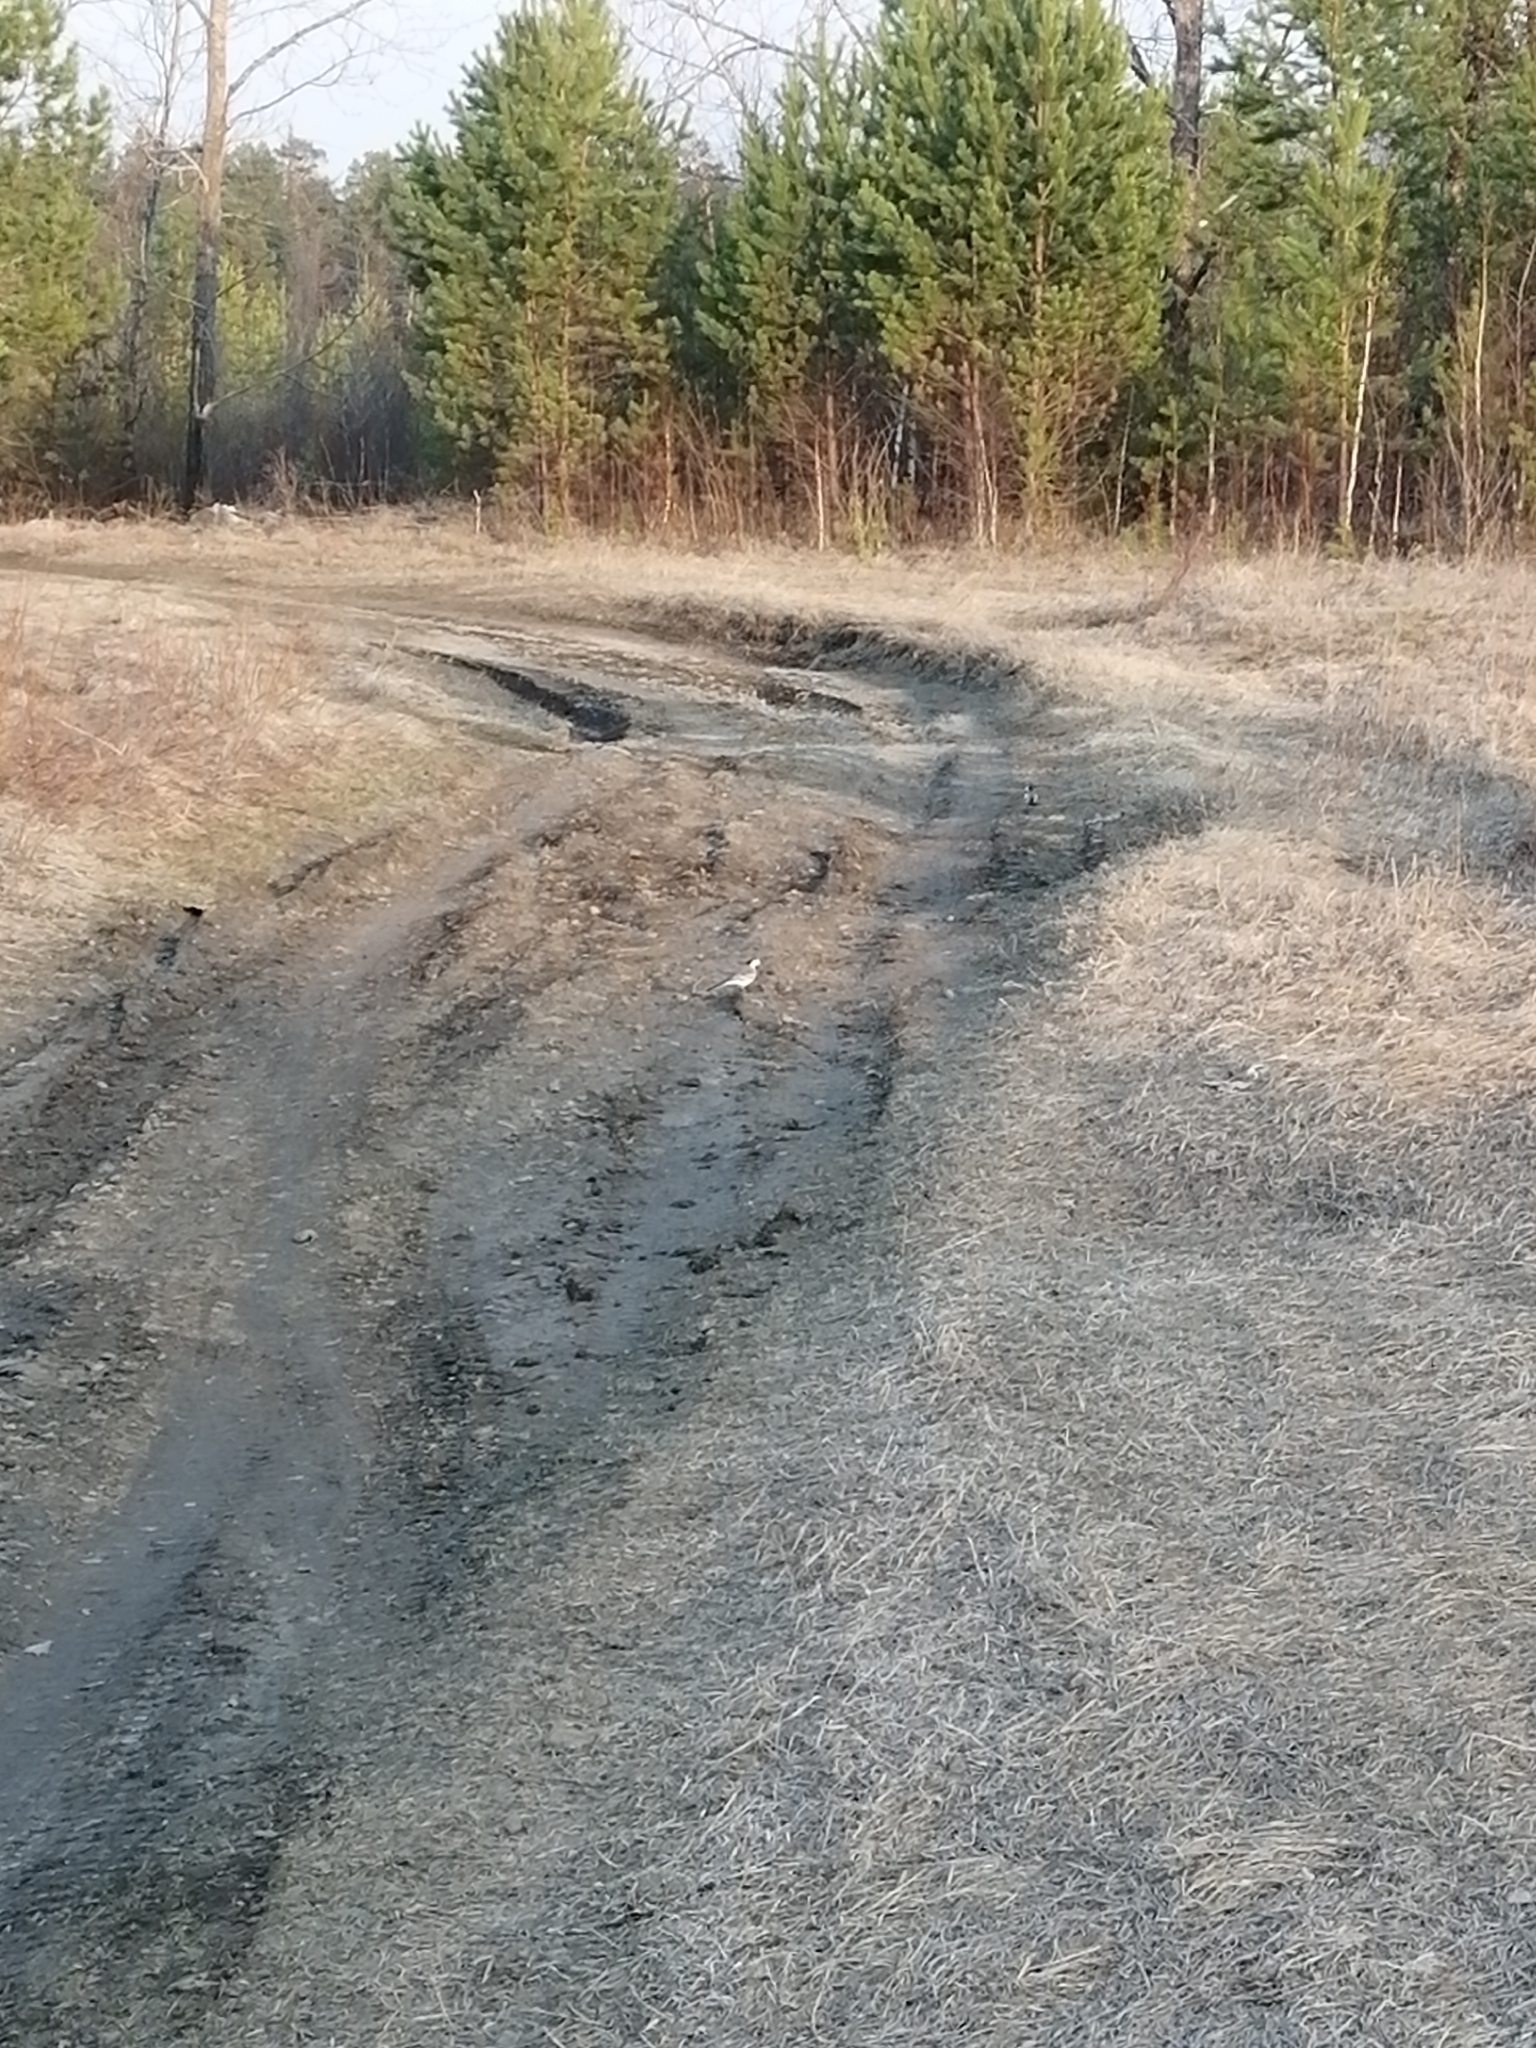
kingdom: Animalia
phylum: Chordata
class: Aves
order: Passeriformes
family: Motacillidae
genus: Motacilla
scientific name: Motacilla alba
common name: White wagtail
